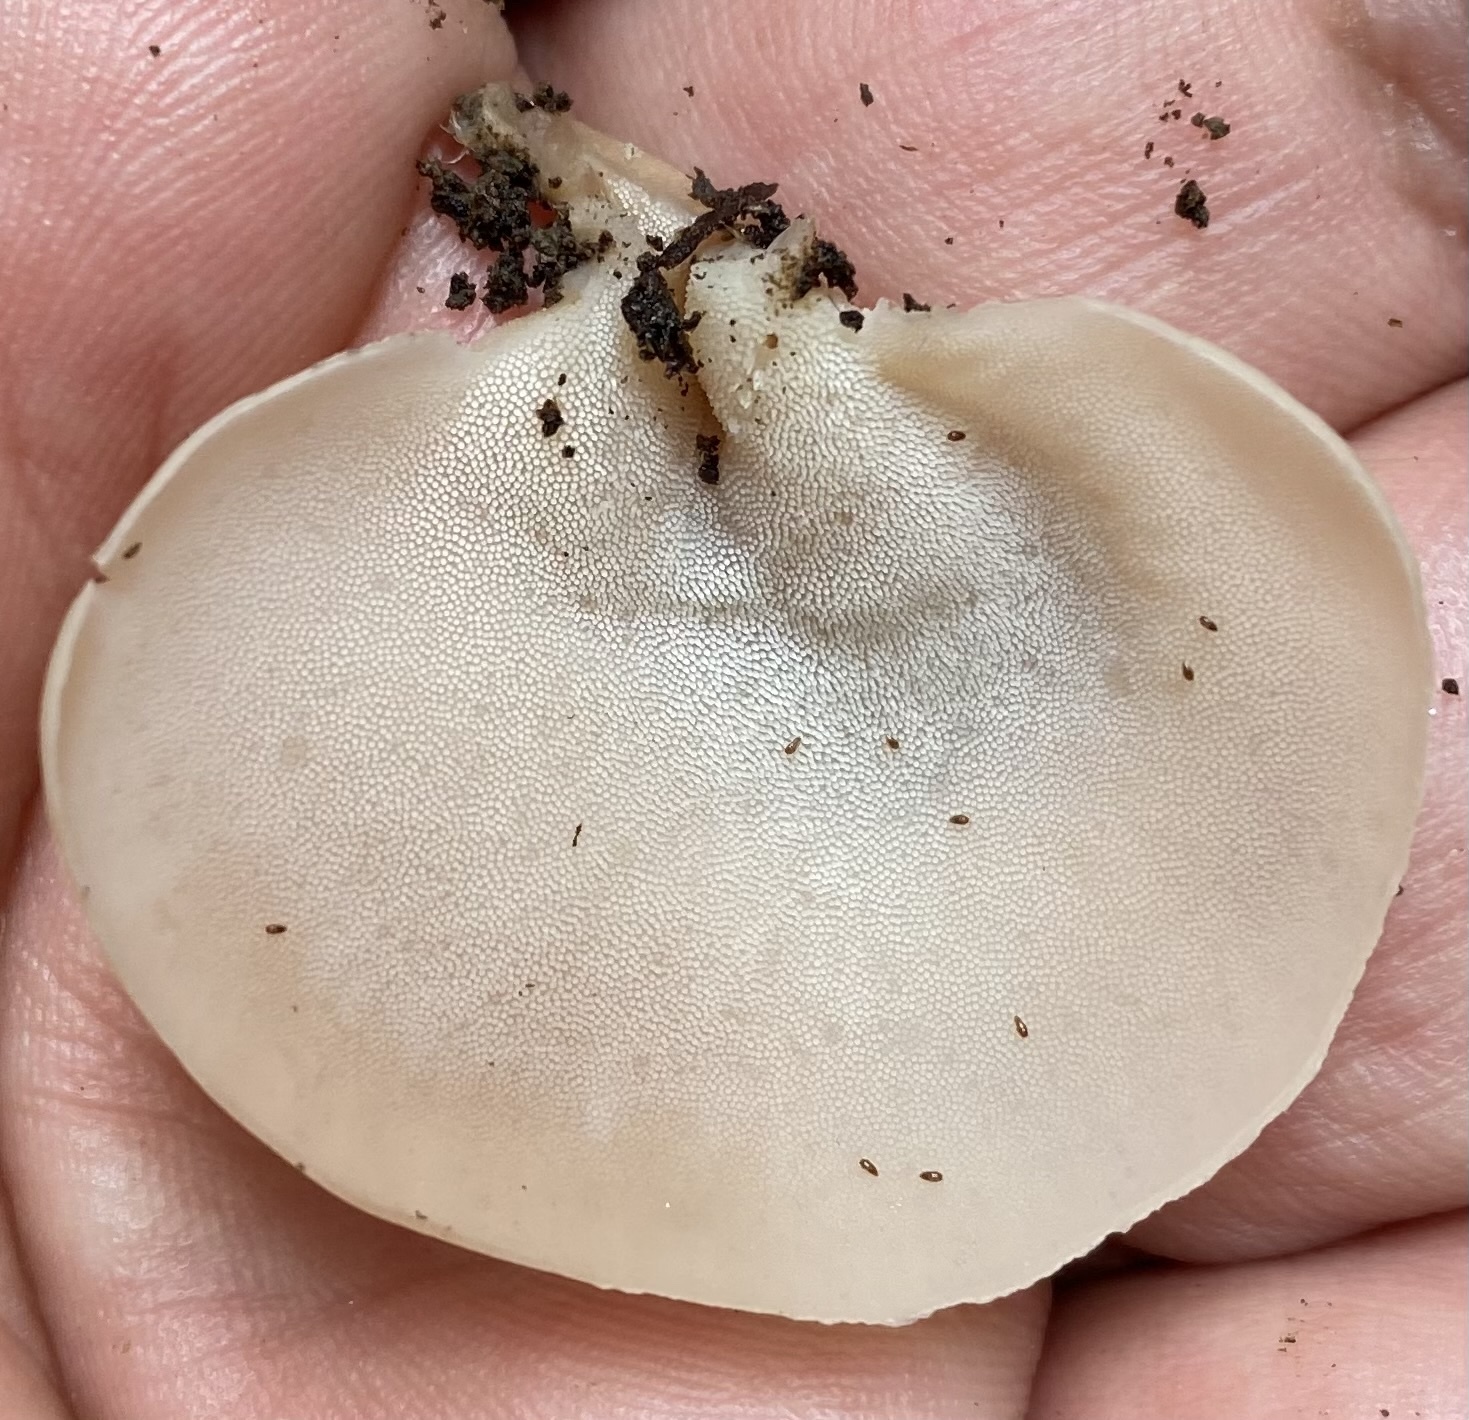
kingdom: Fungi
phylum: Basidiomycota
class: Agaricomycetes
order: Russulales
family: Auriscalpiaceae
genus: Auriscalpium
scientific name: Auriscalpium andinum
